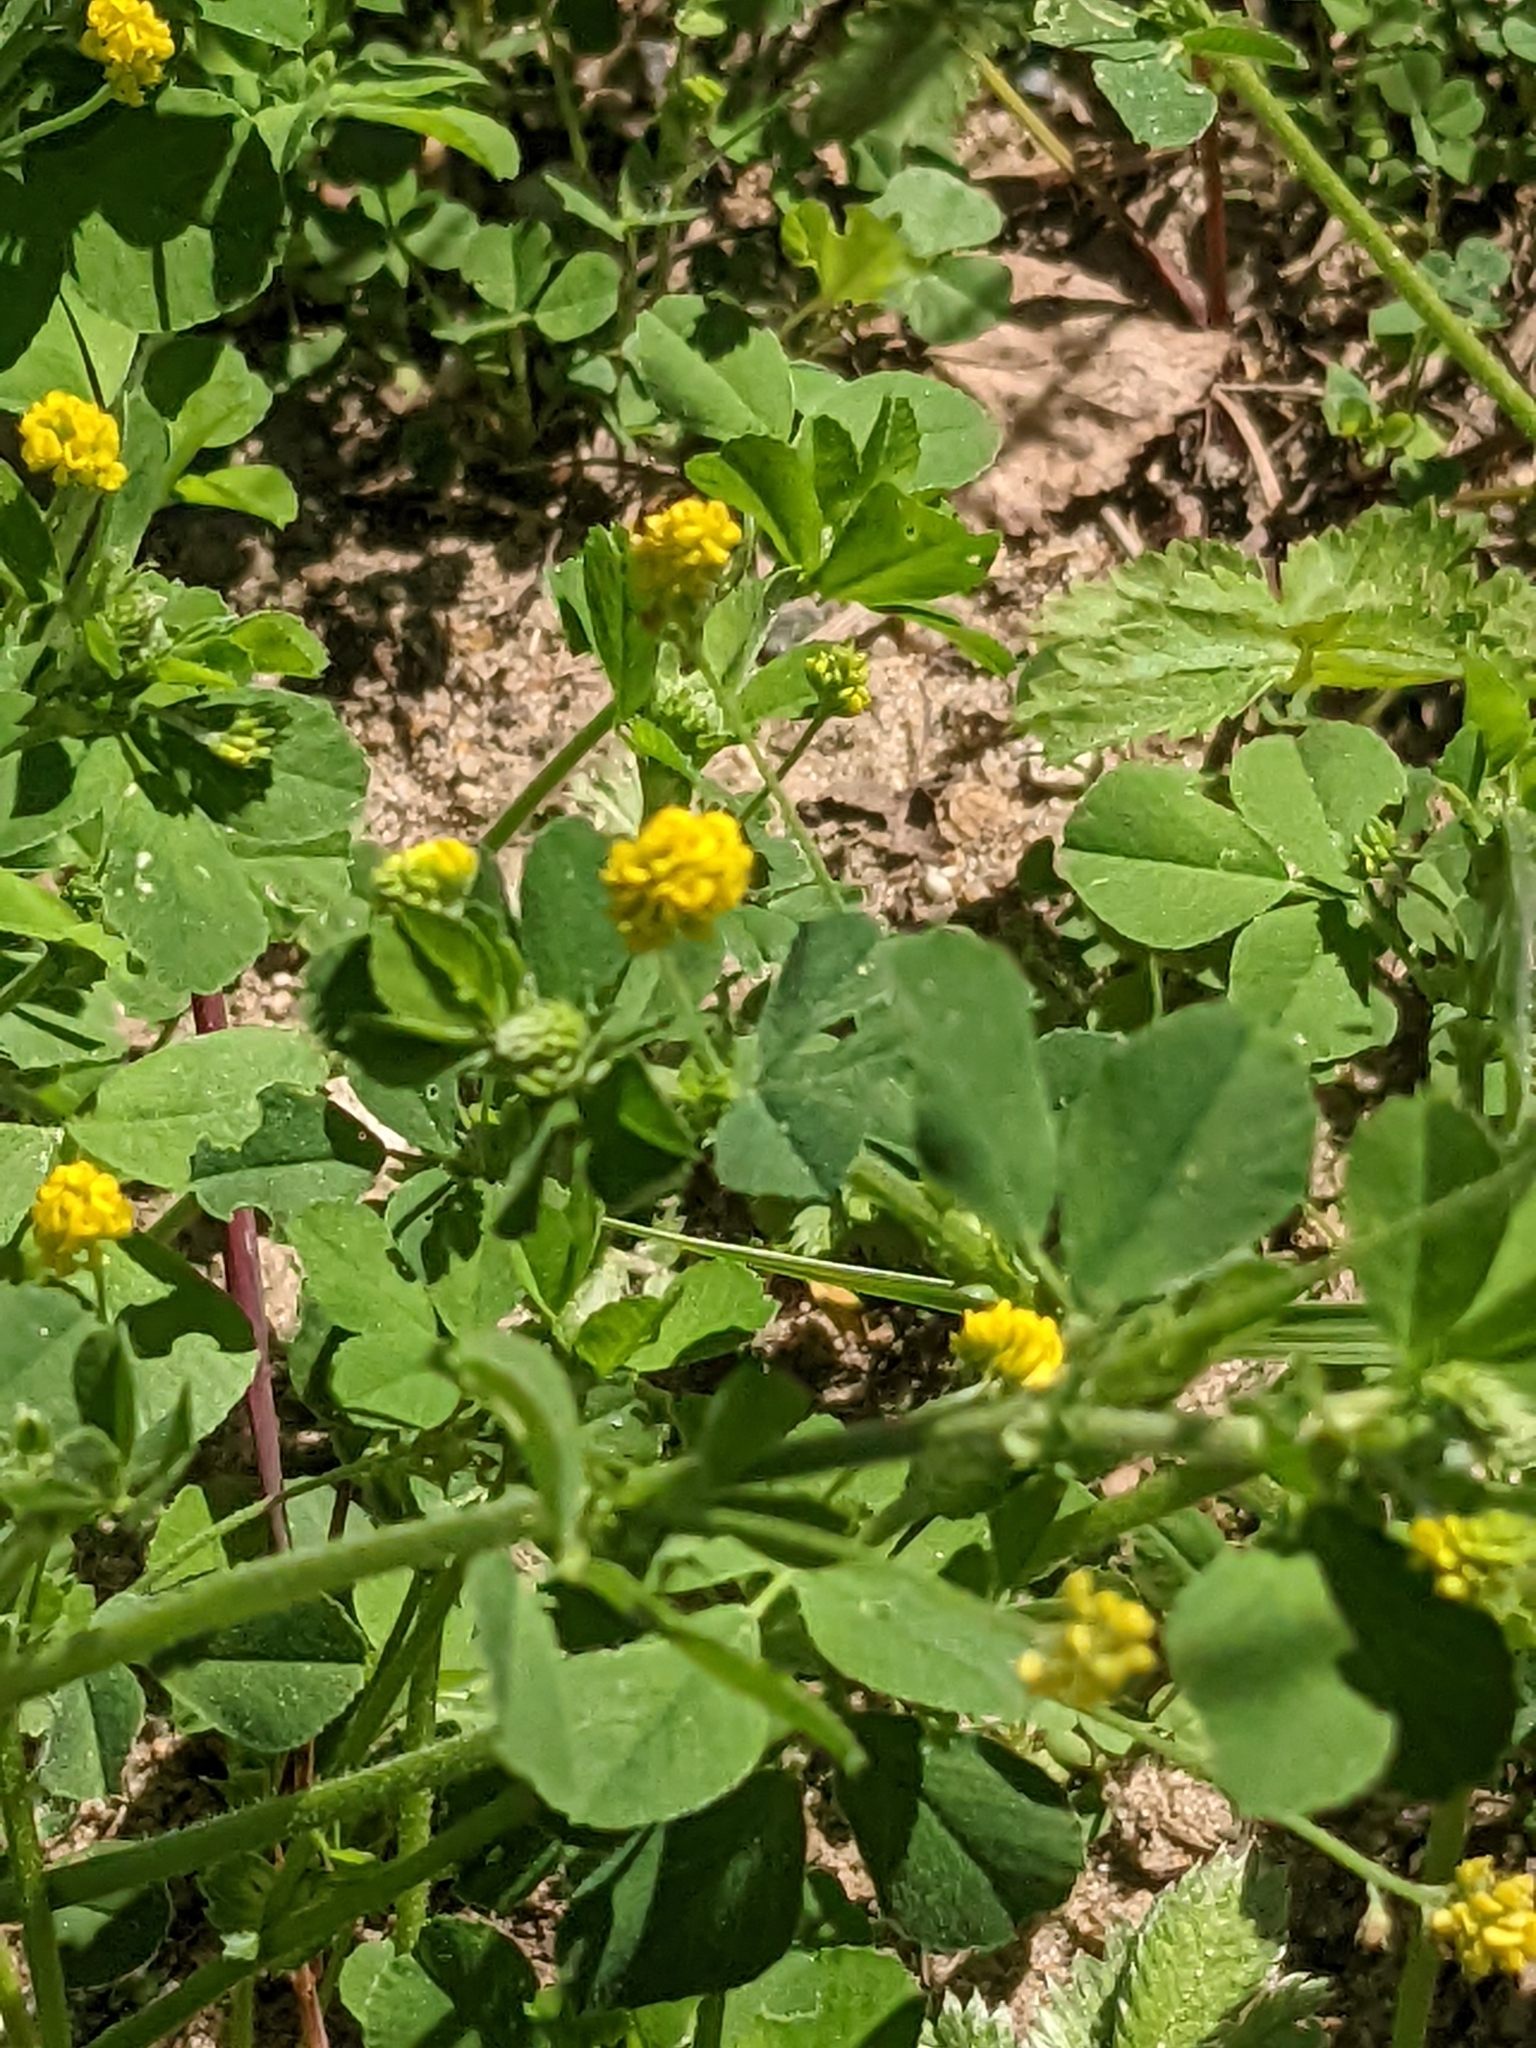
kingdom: Plantae
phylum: Tracheophyta
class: Magnoliopsida
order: Fabales
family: Fabaceae
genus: Medicago
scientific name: Medicago lupulina
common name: Black medick
